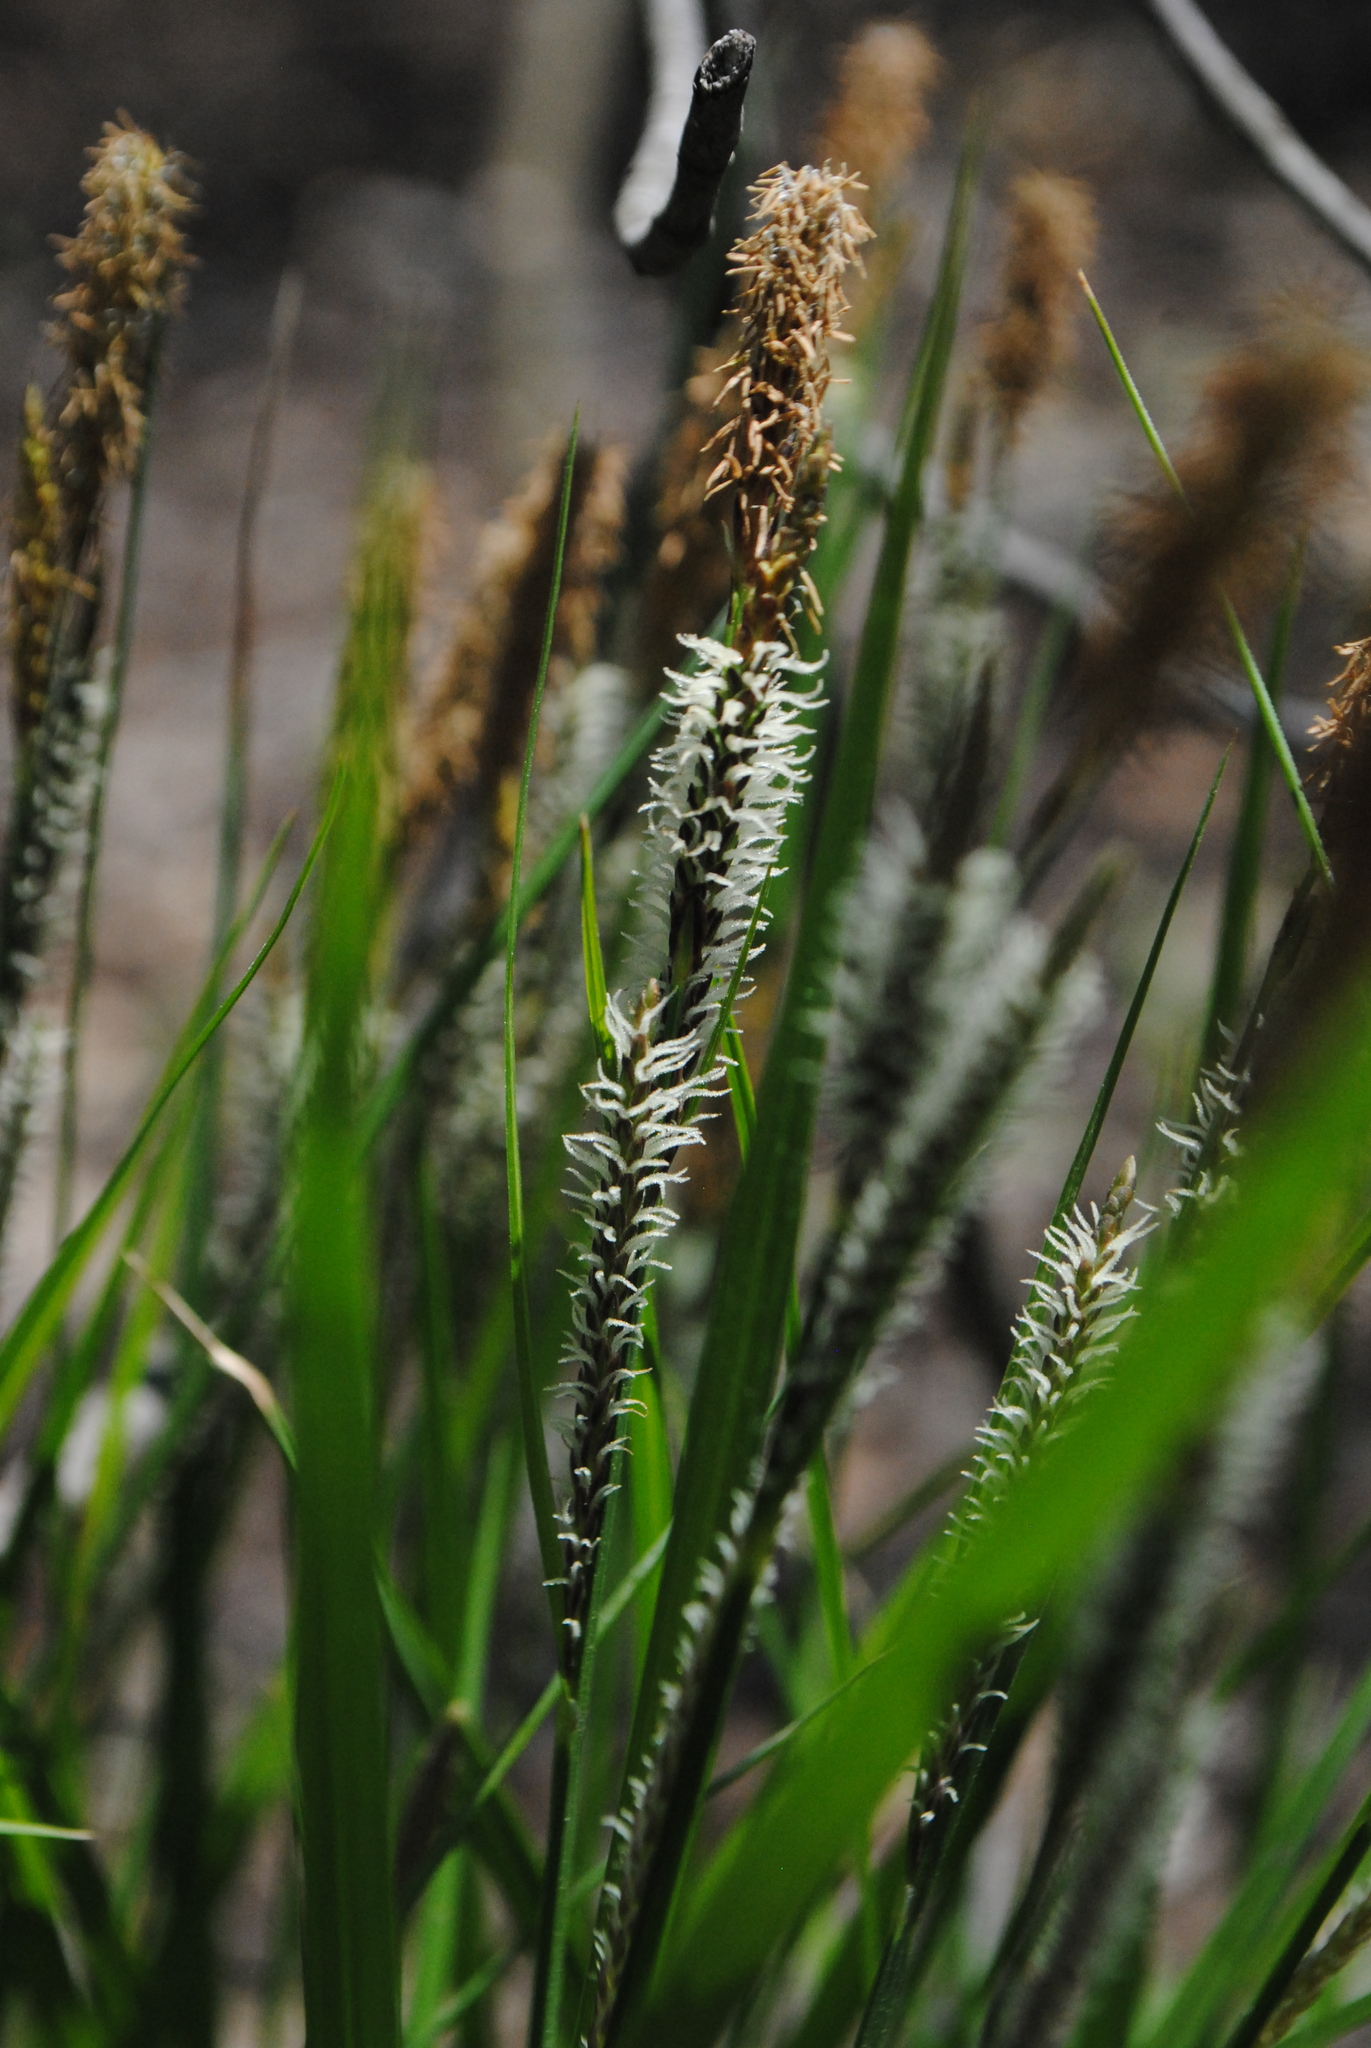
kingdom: Plantae
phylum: Tracheophyta
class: Liliopsida
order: Poales
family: Cyperaceae
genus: Carex
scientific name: Carex stricta
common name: Hummock sedge
